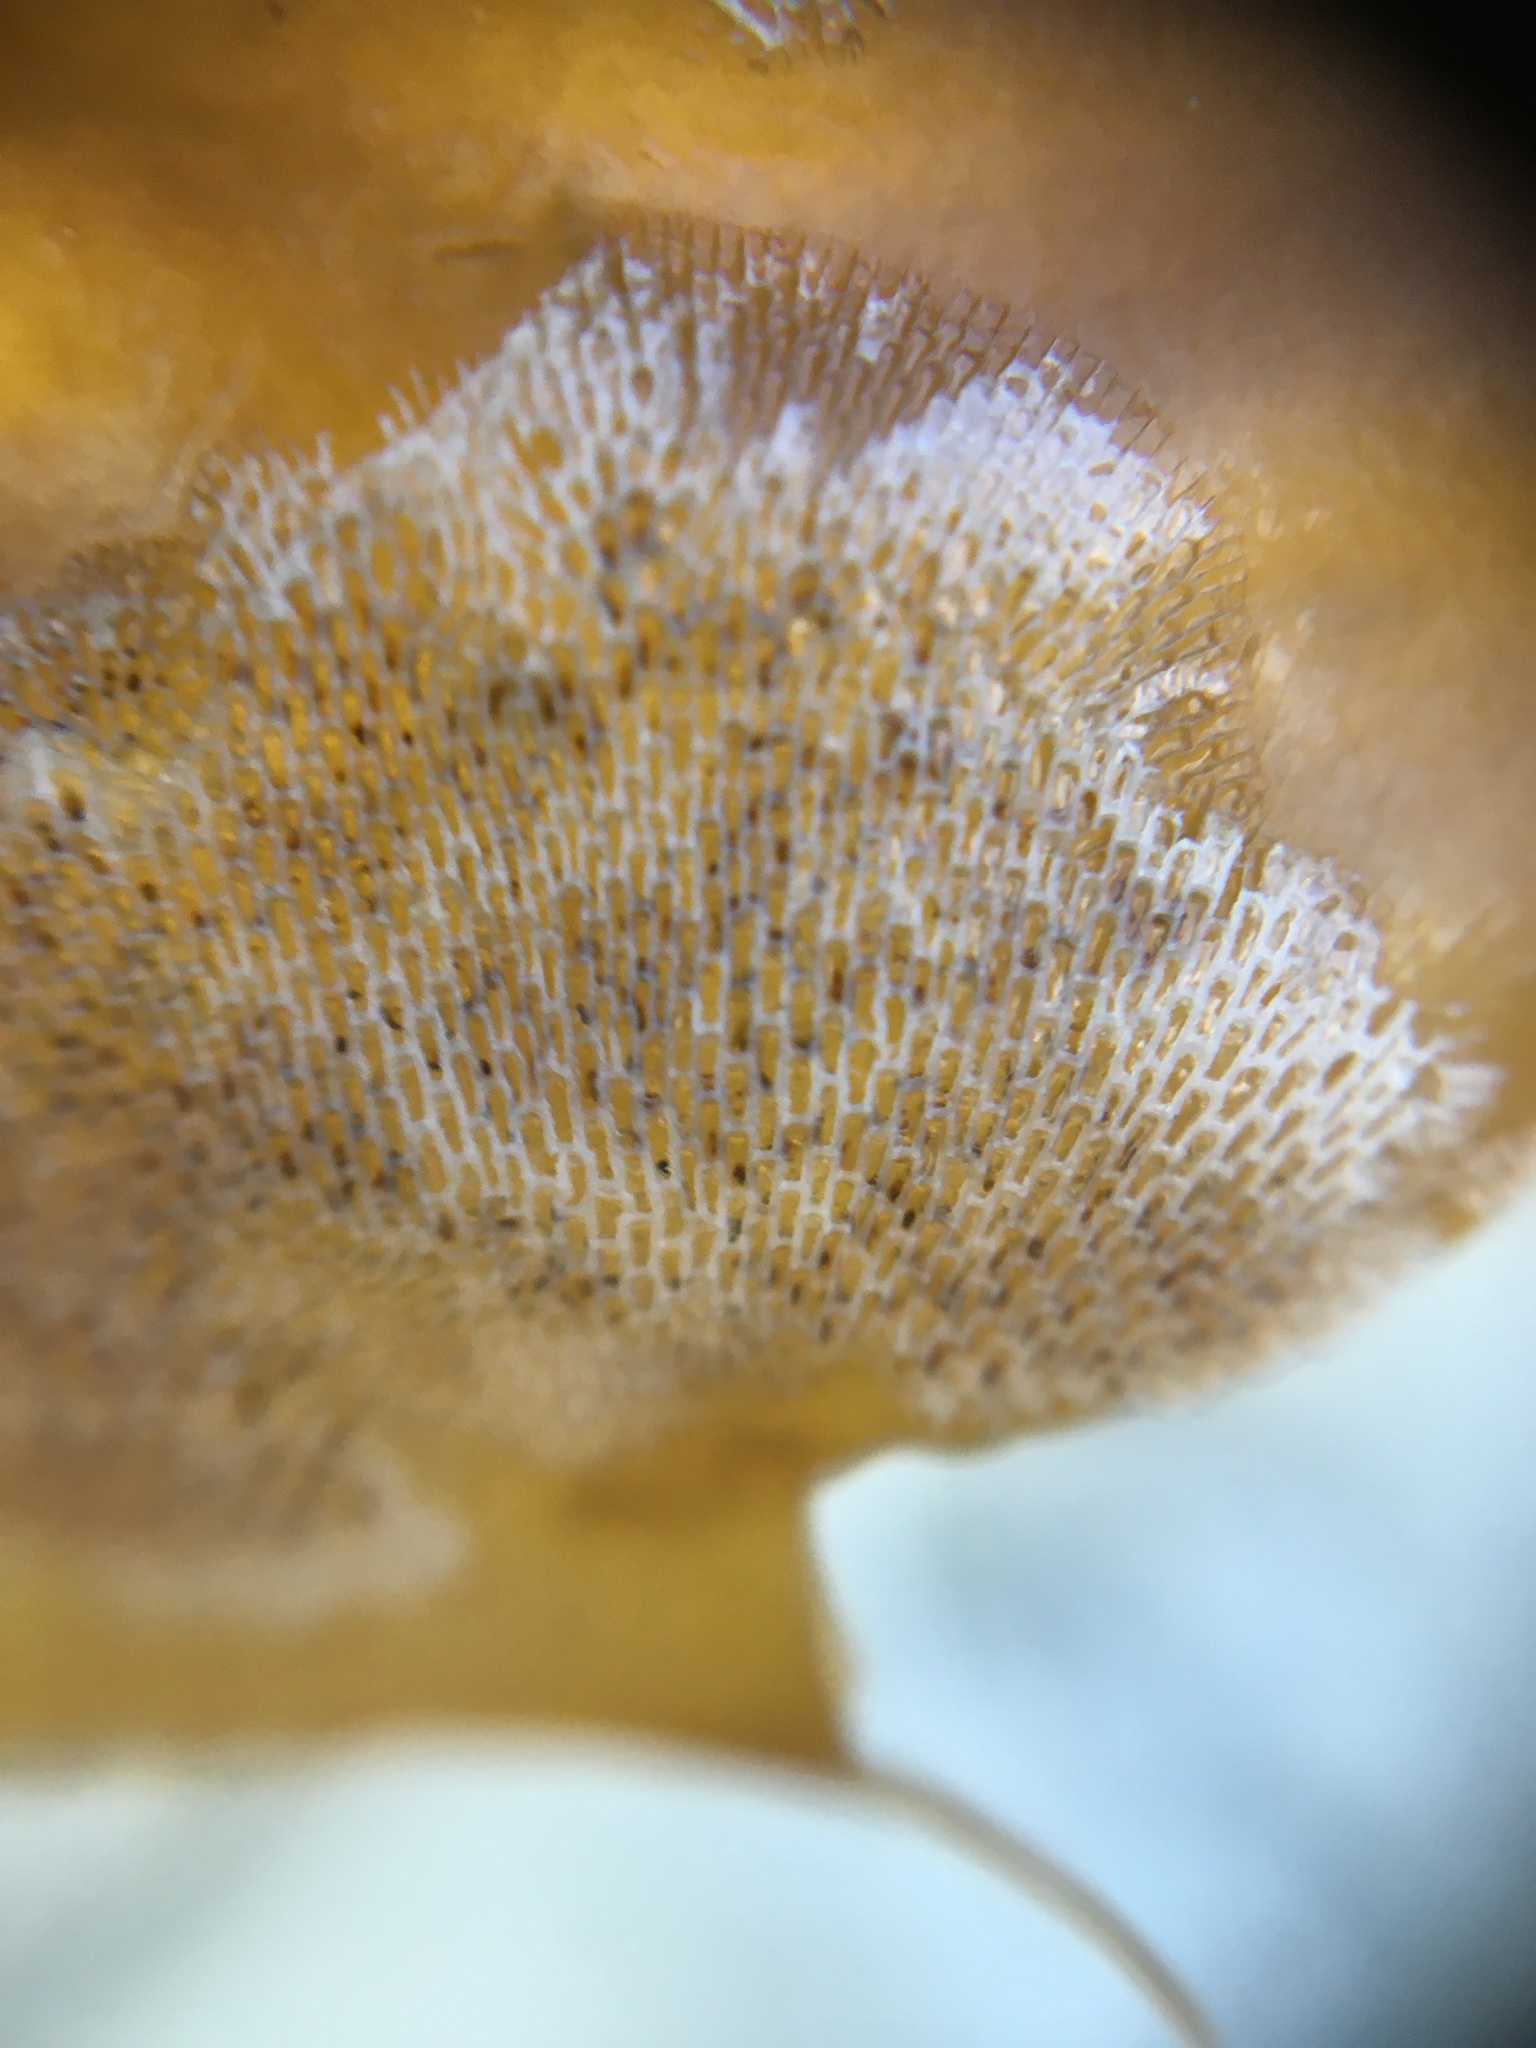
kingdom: Animalia
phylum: Bryozoa
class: Gymnolaemata
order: Cheilostomatida
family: Membraniporidae
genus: Membranipora
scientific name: Membranipora membranacea
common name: Sea mat
